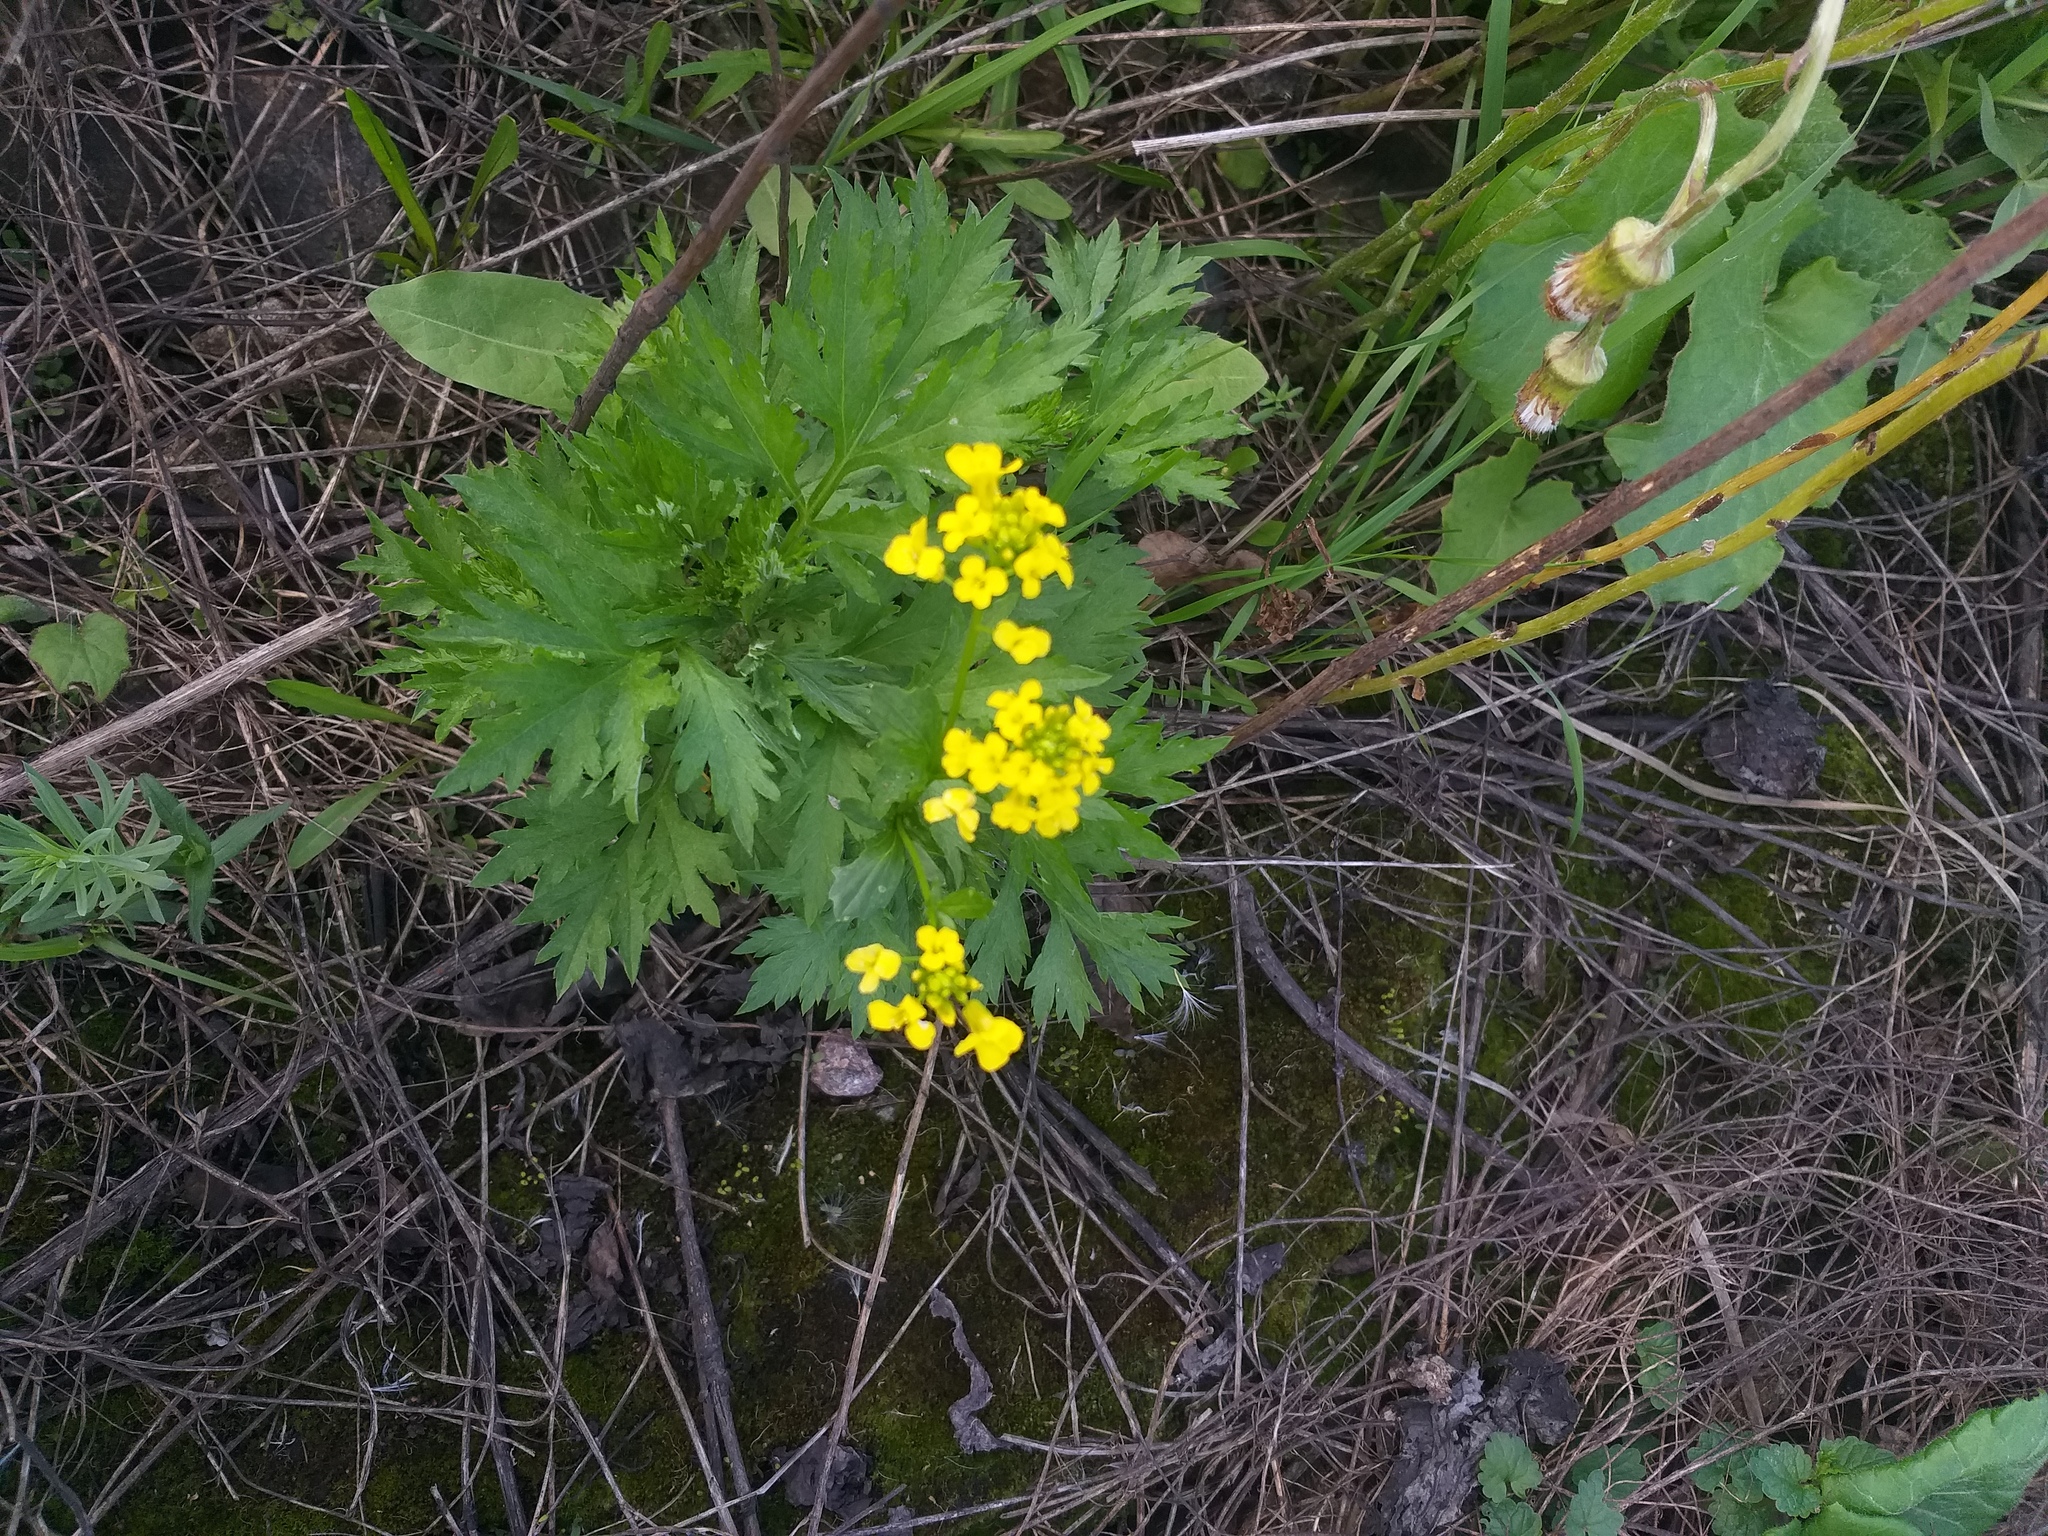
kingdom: Plantae
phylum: Tracheophyta
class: Magnoliopsida
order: Brassicales
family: Brassicaceae
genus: Barbarea
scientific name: Barbarea vulgaris
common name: Cressy-greens
